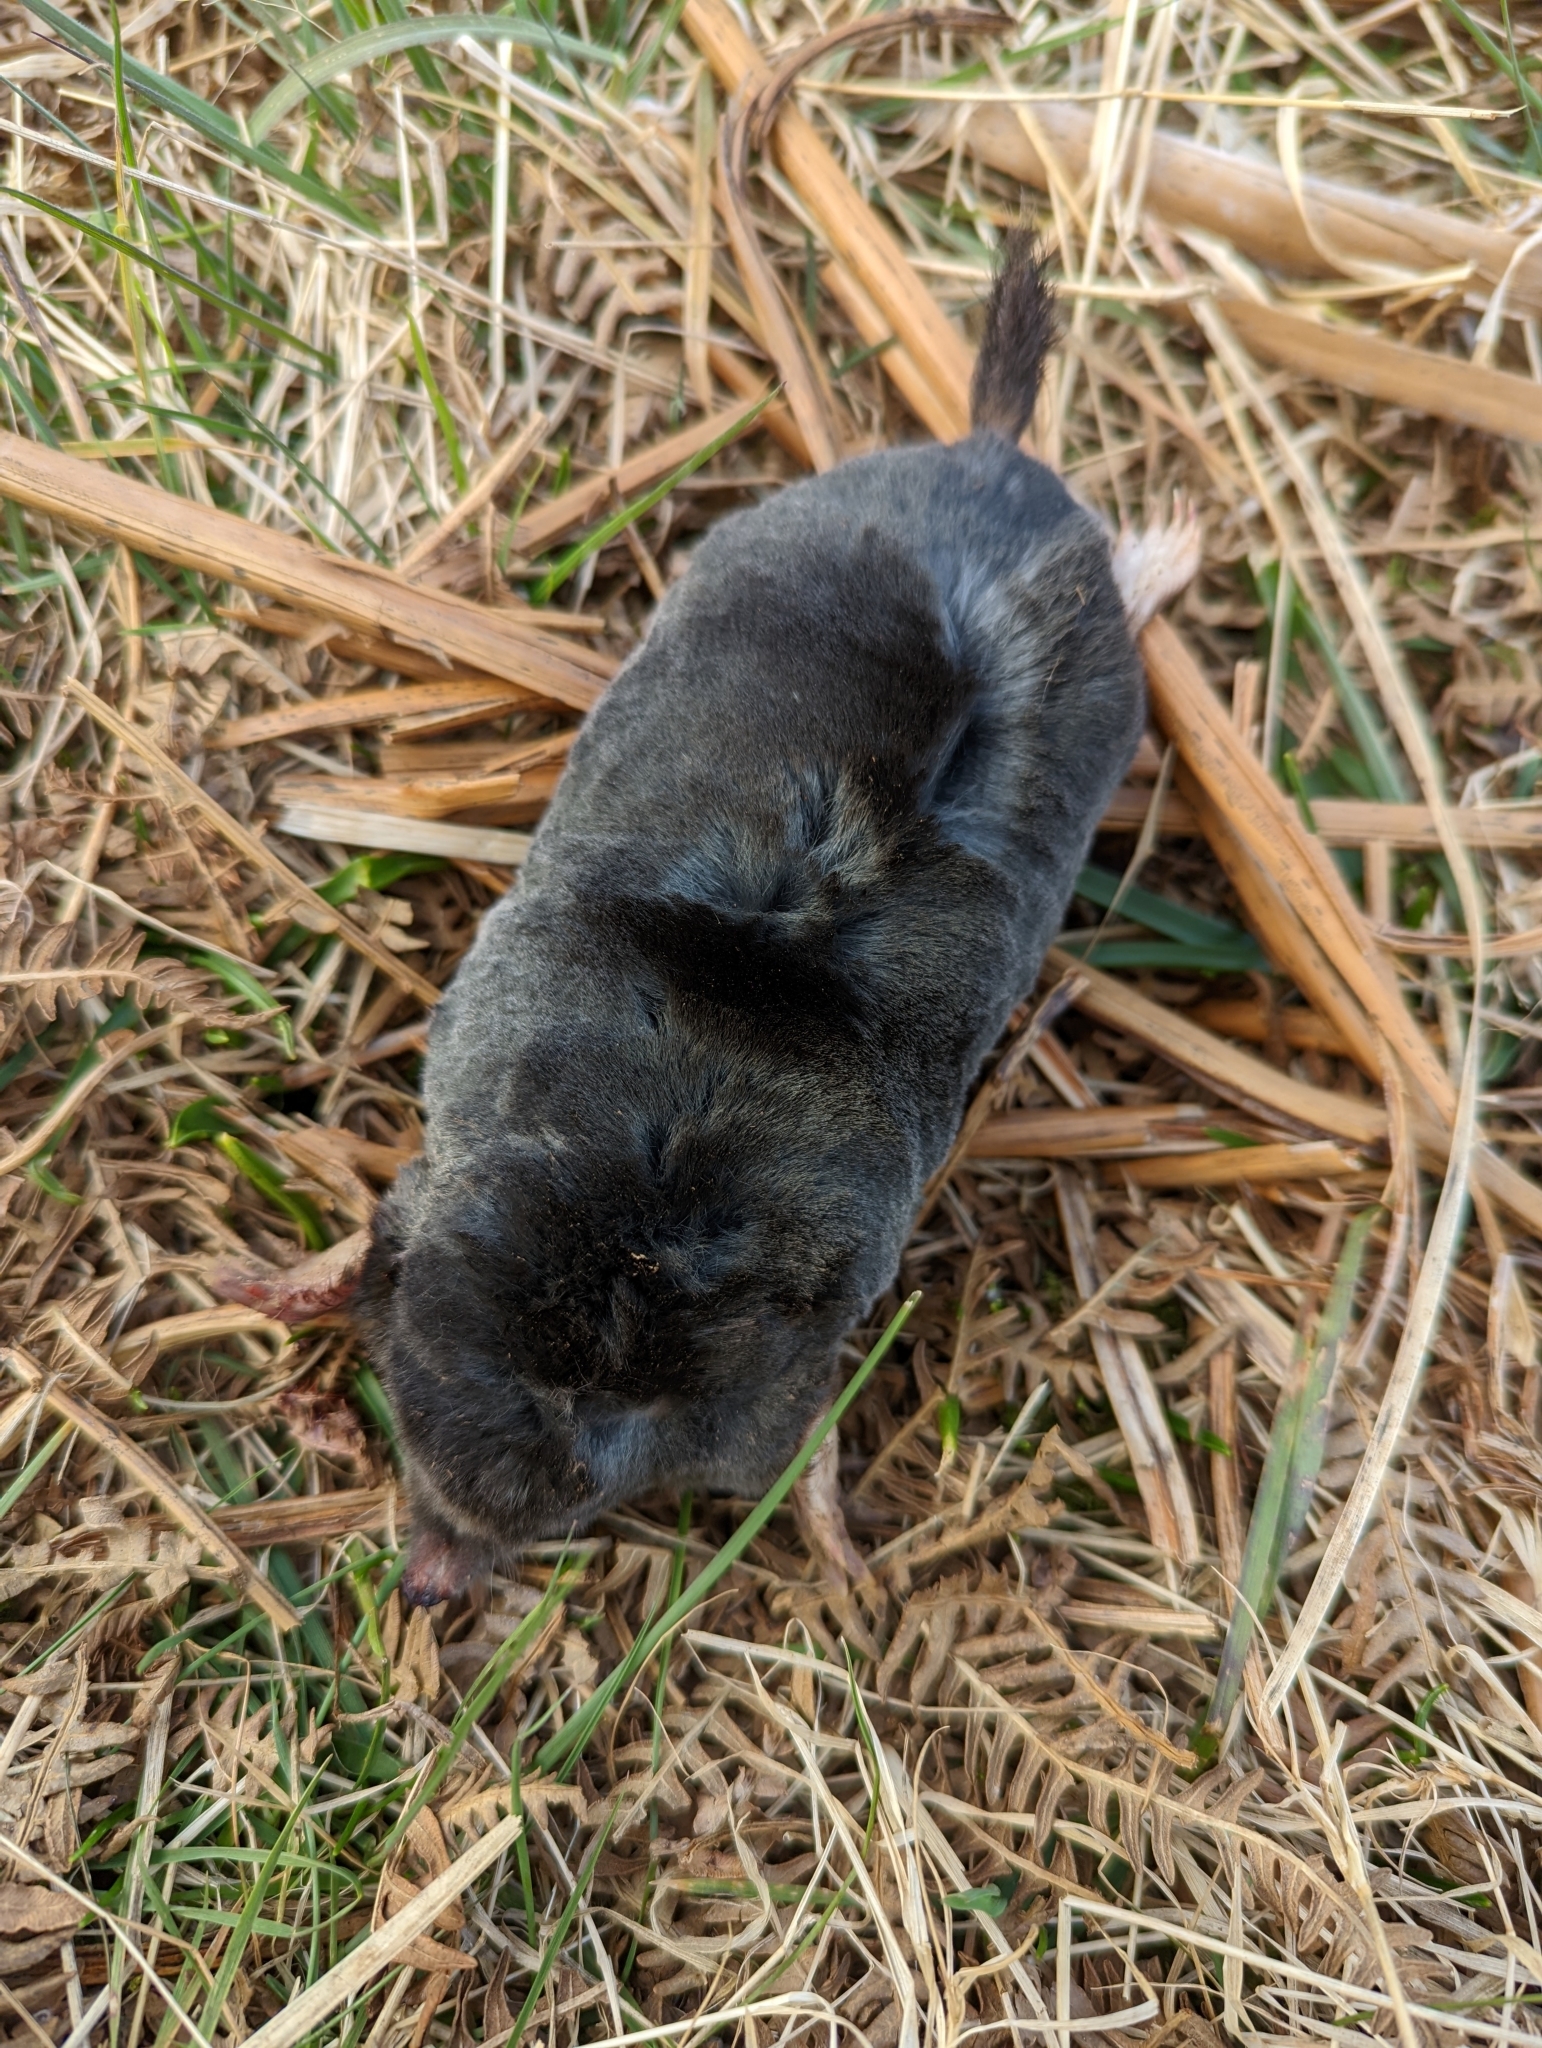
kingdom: Animalia
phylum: Chordata
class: Mammalia
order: Soricomorpha
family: Talpidae
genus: Talpa
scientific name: Talpa europaea
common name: European mole
